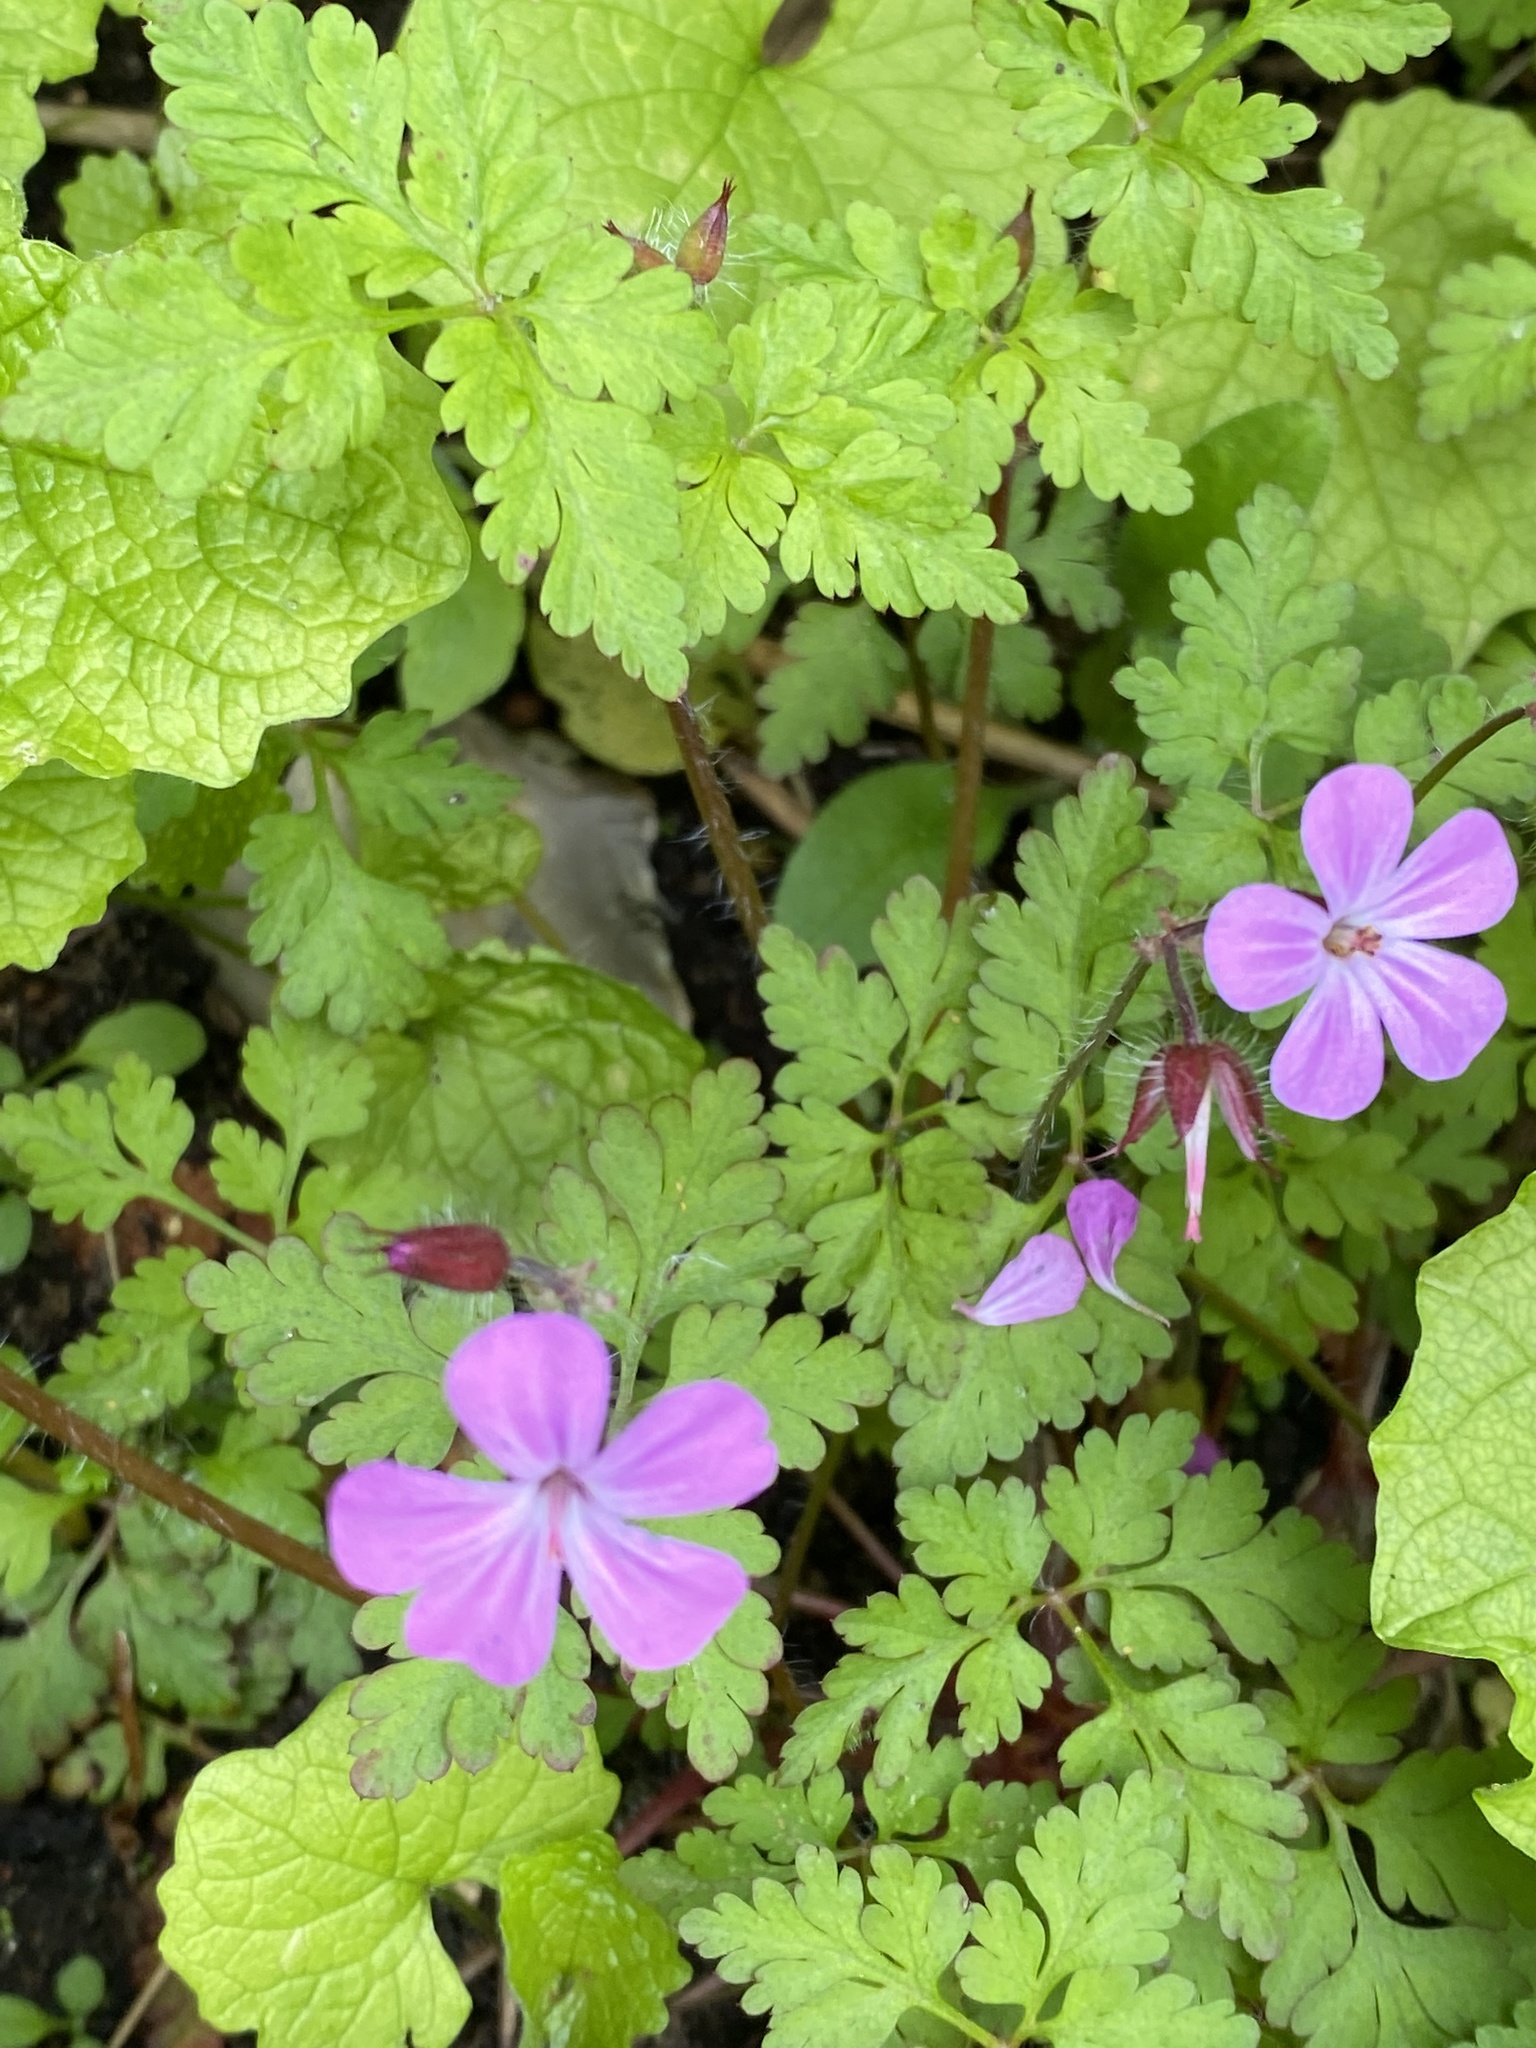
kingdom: Plantae
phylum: Tracheophyta
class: Magnoliopsida
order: Geraniales
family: Geraniaceae
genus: Geranium
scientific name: Geranium robertianum
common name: Herb-robert
